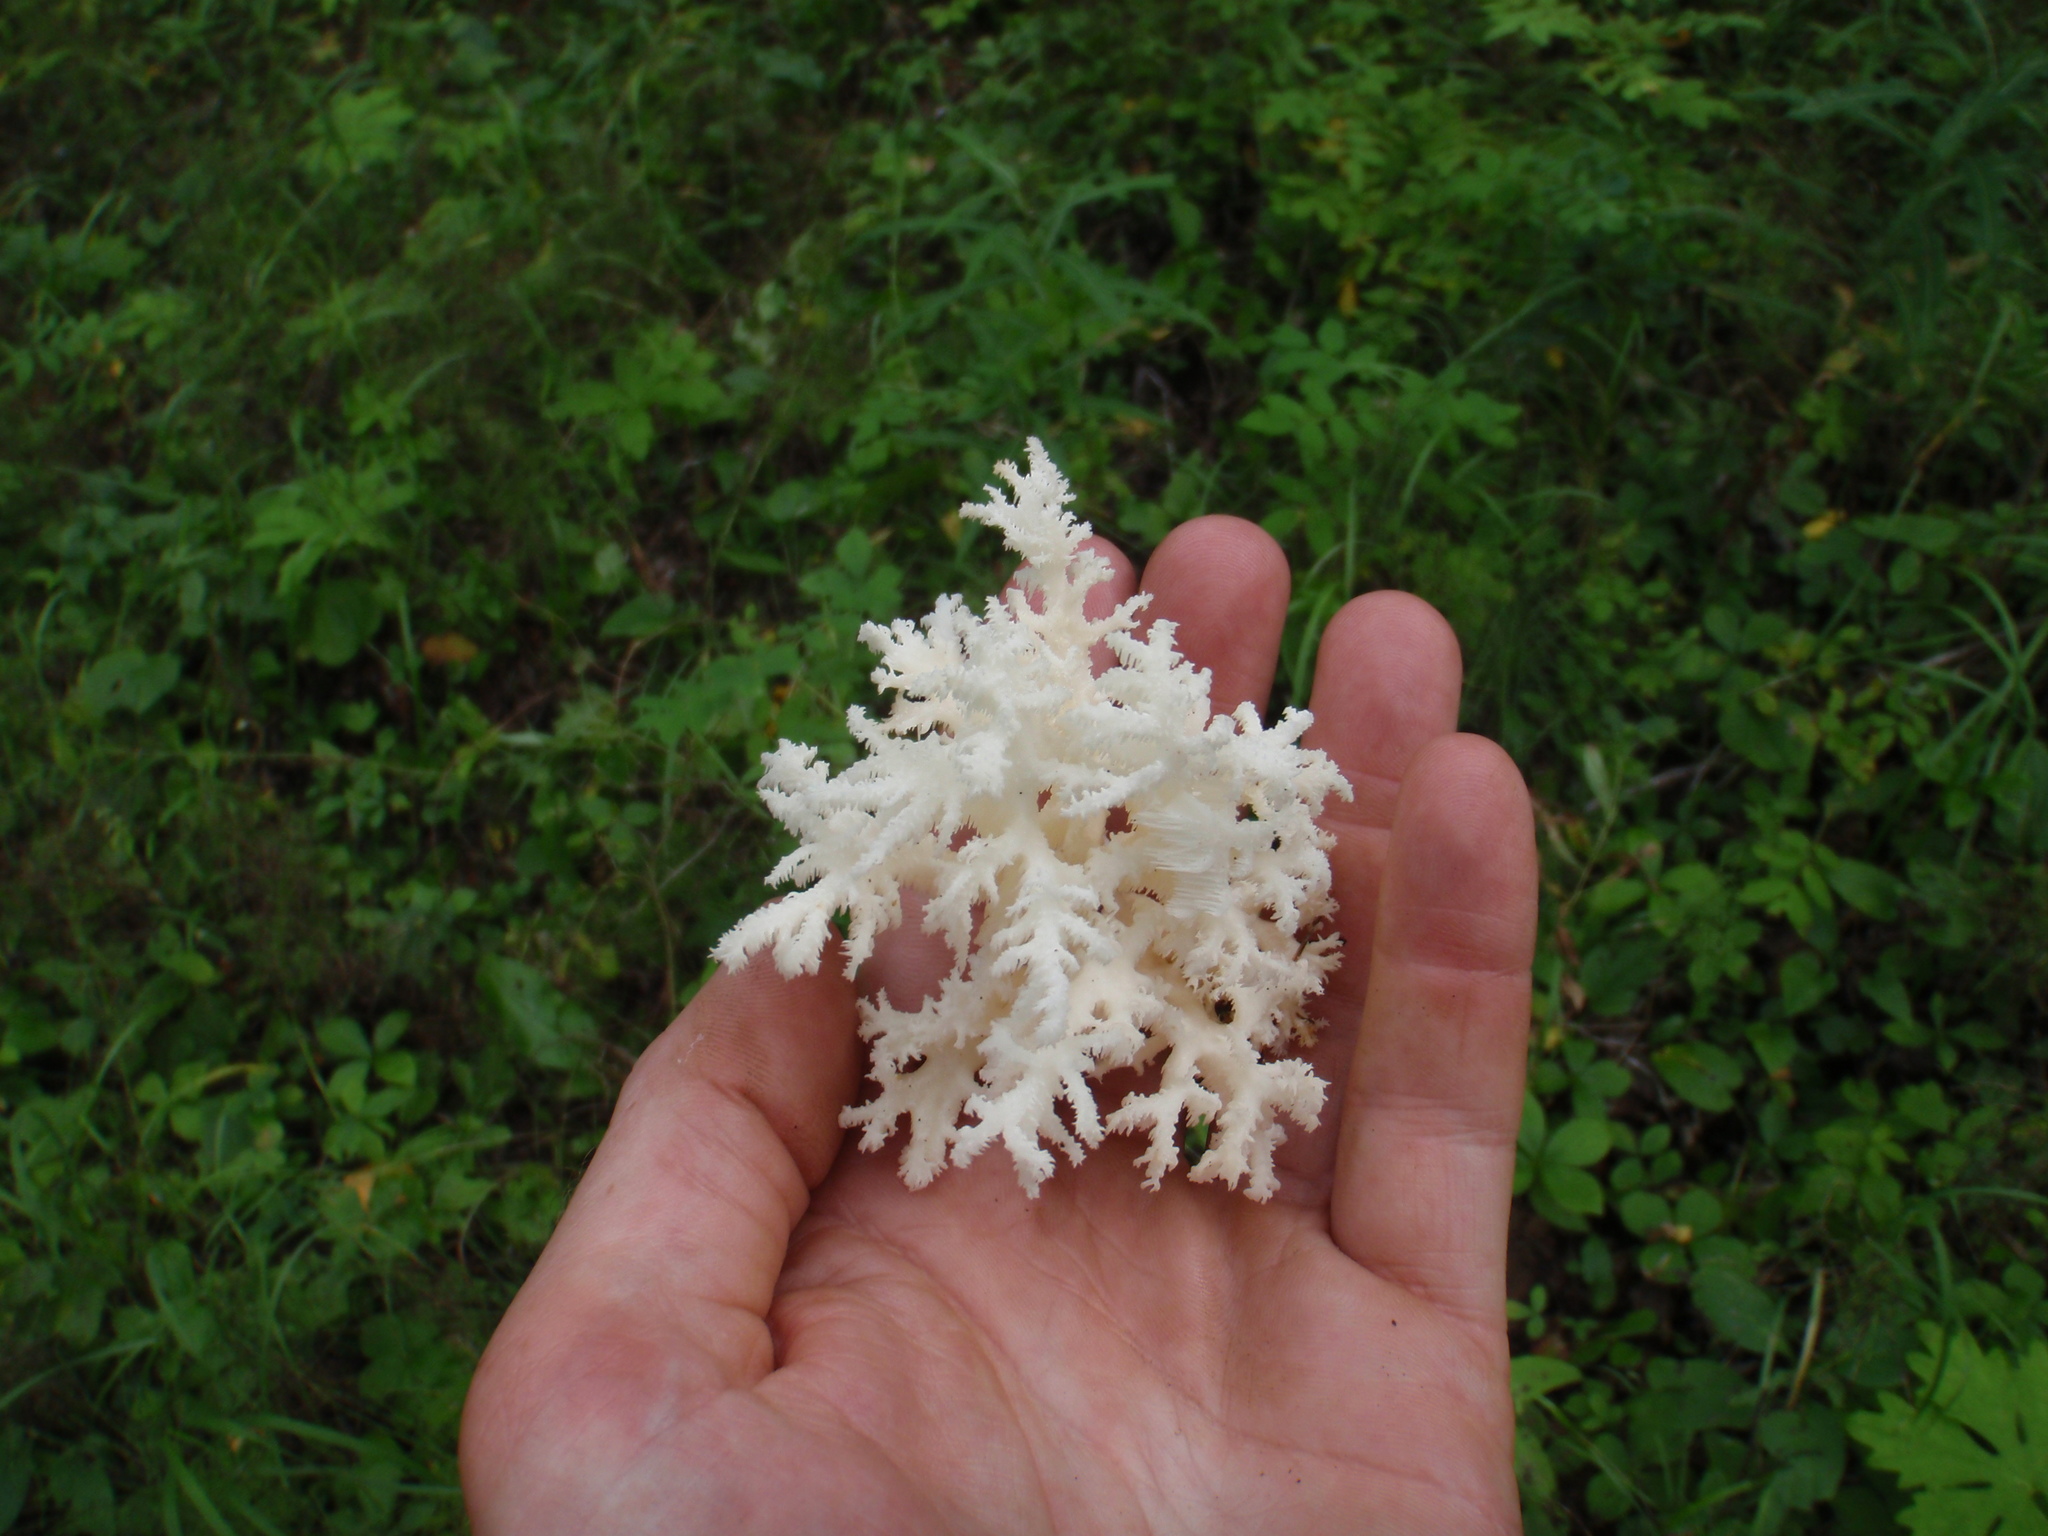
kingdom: Fungi
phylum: Basidiomycota
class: Agaricomycetes
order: Russulales
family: Hericiaceae
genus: Hericium
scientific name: Hericium coralloides
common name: Coral tooth
